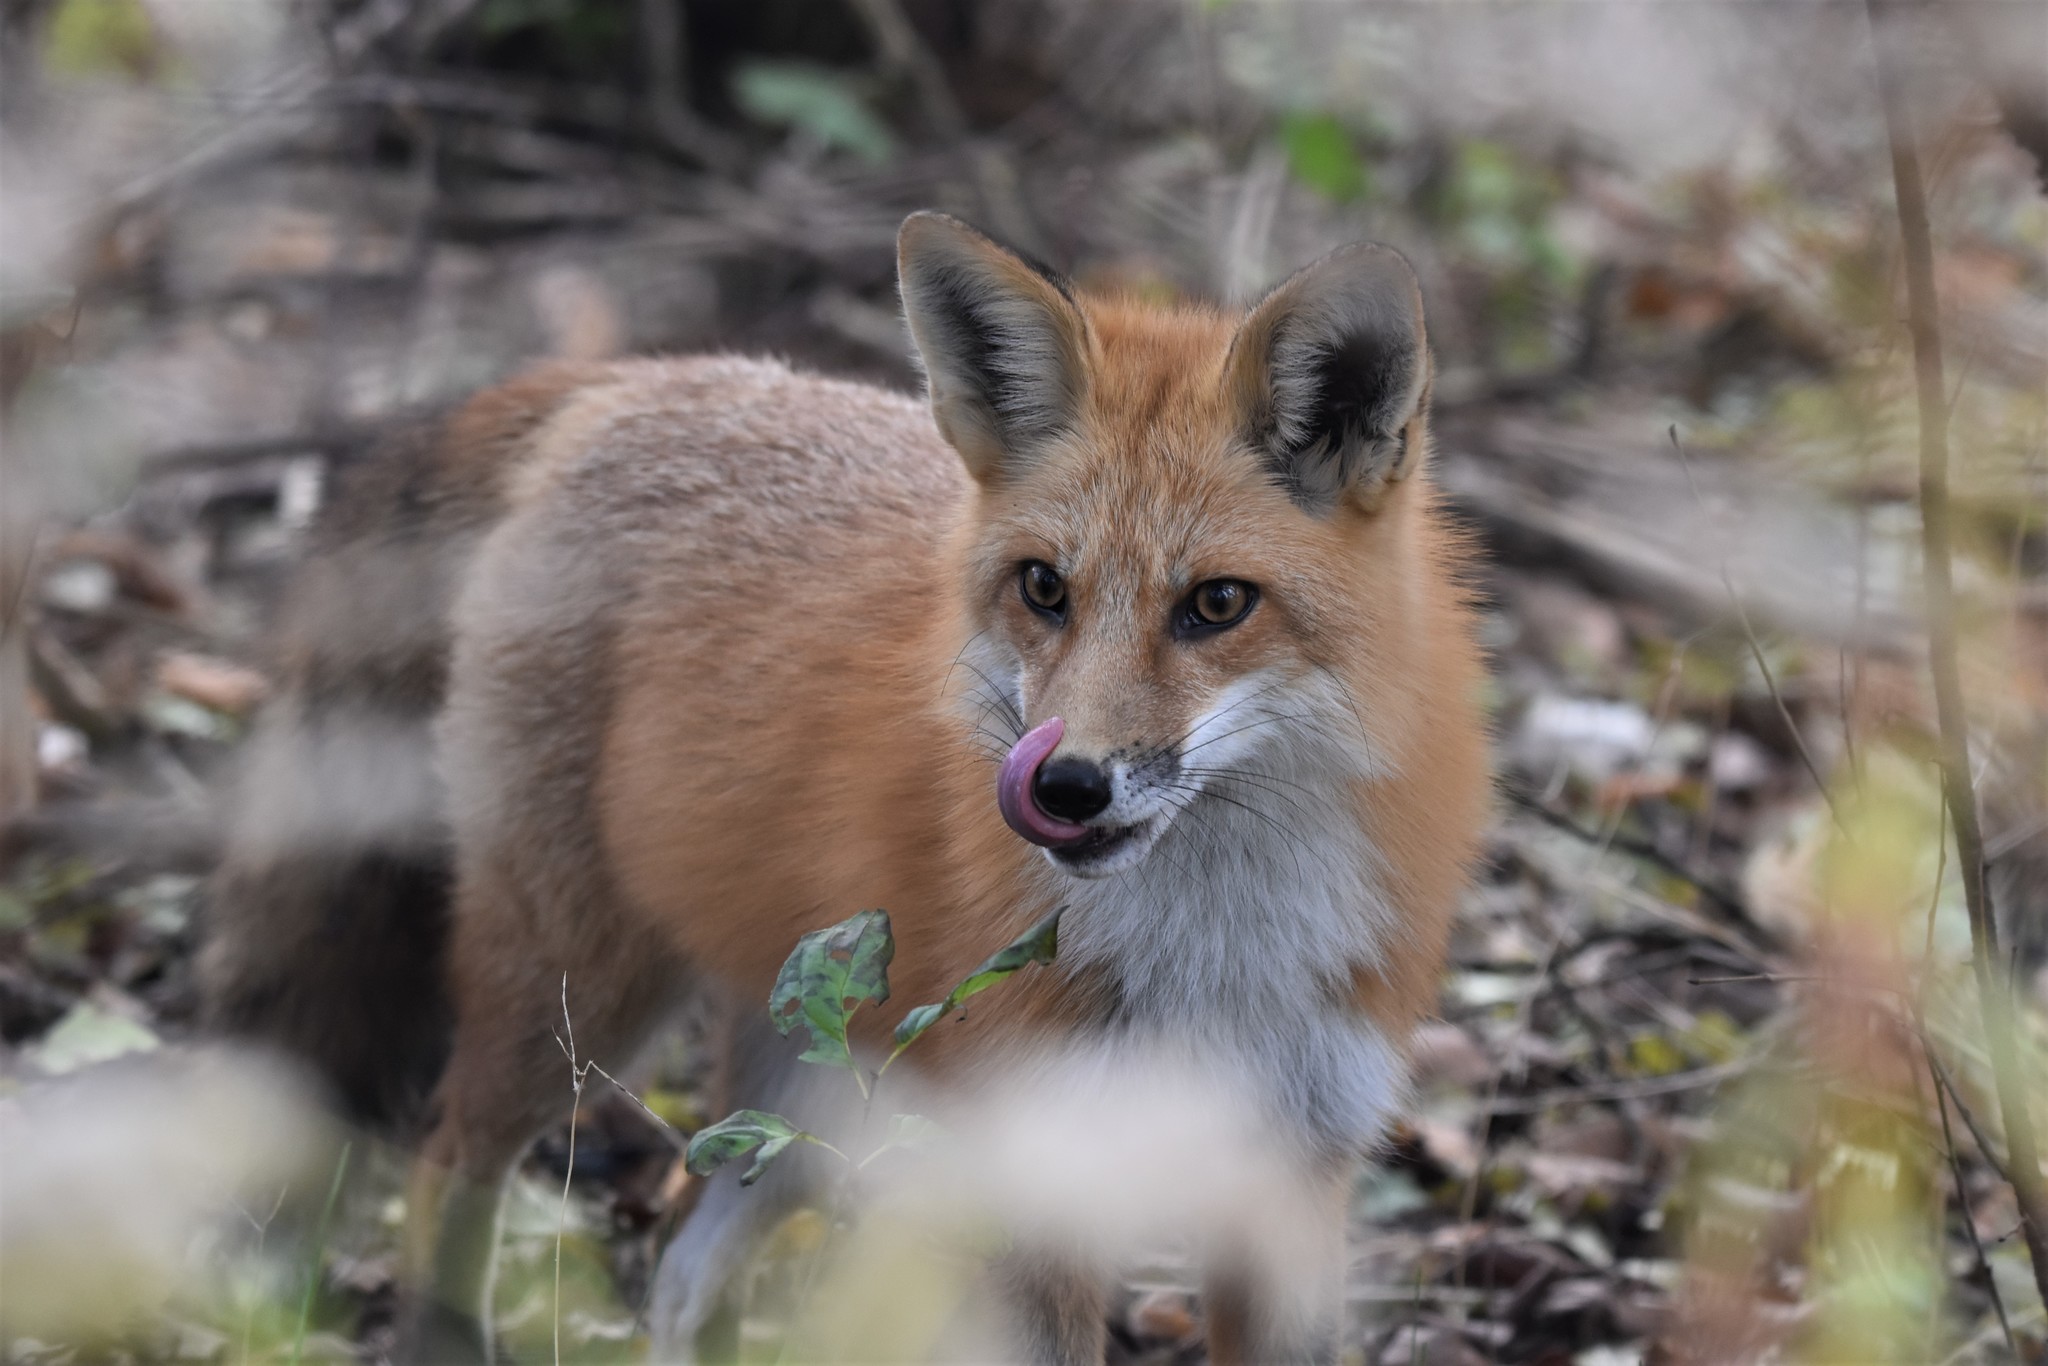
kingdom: Animalia
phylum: Chordata
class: Mammalia
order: Carnivora
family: Canidae
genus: Vulpes
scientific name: Vulpes vulpes
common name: Red fox
